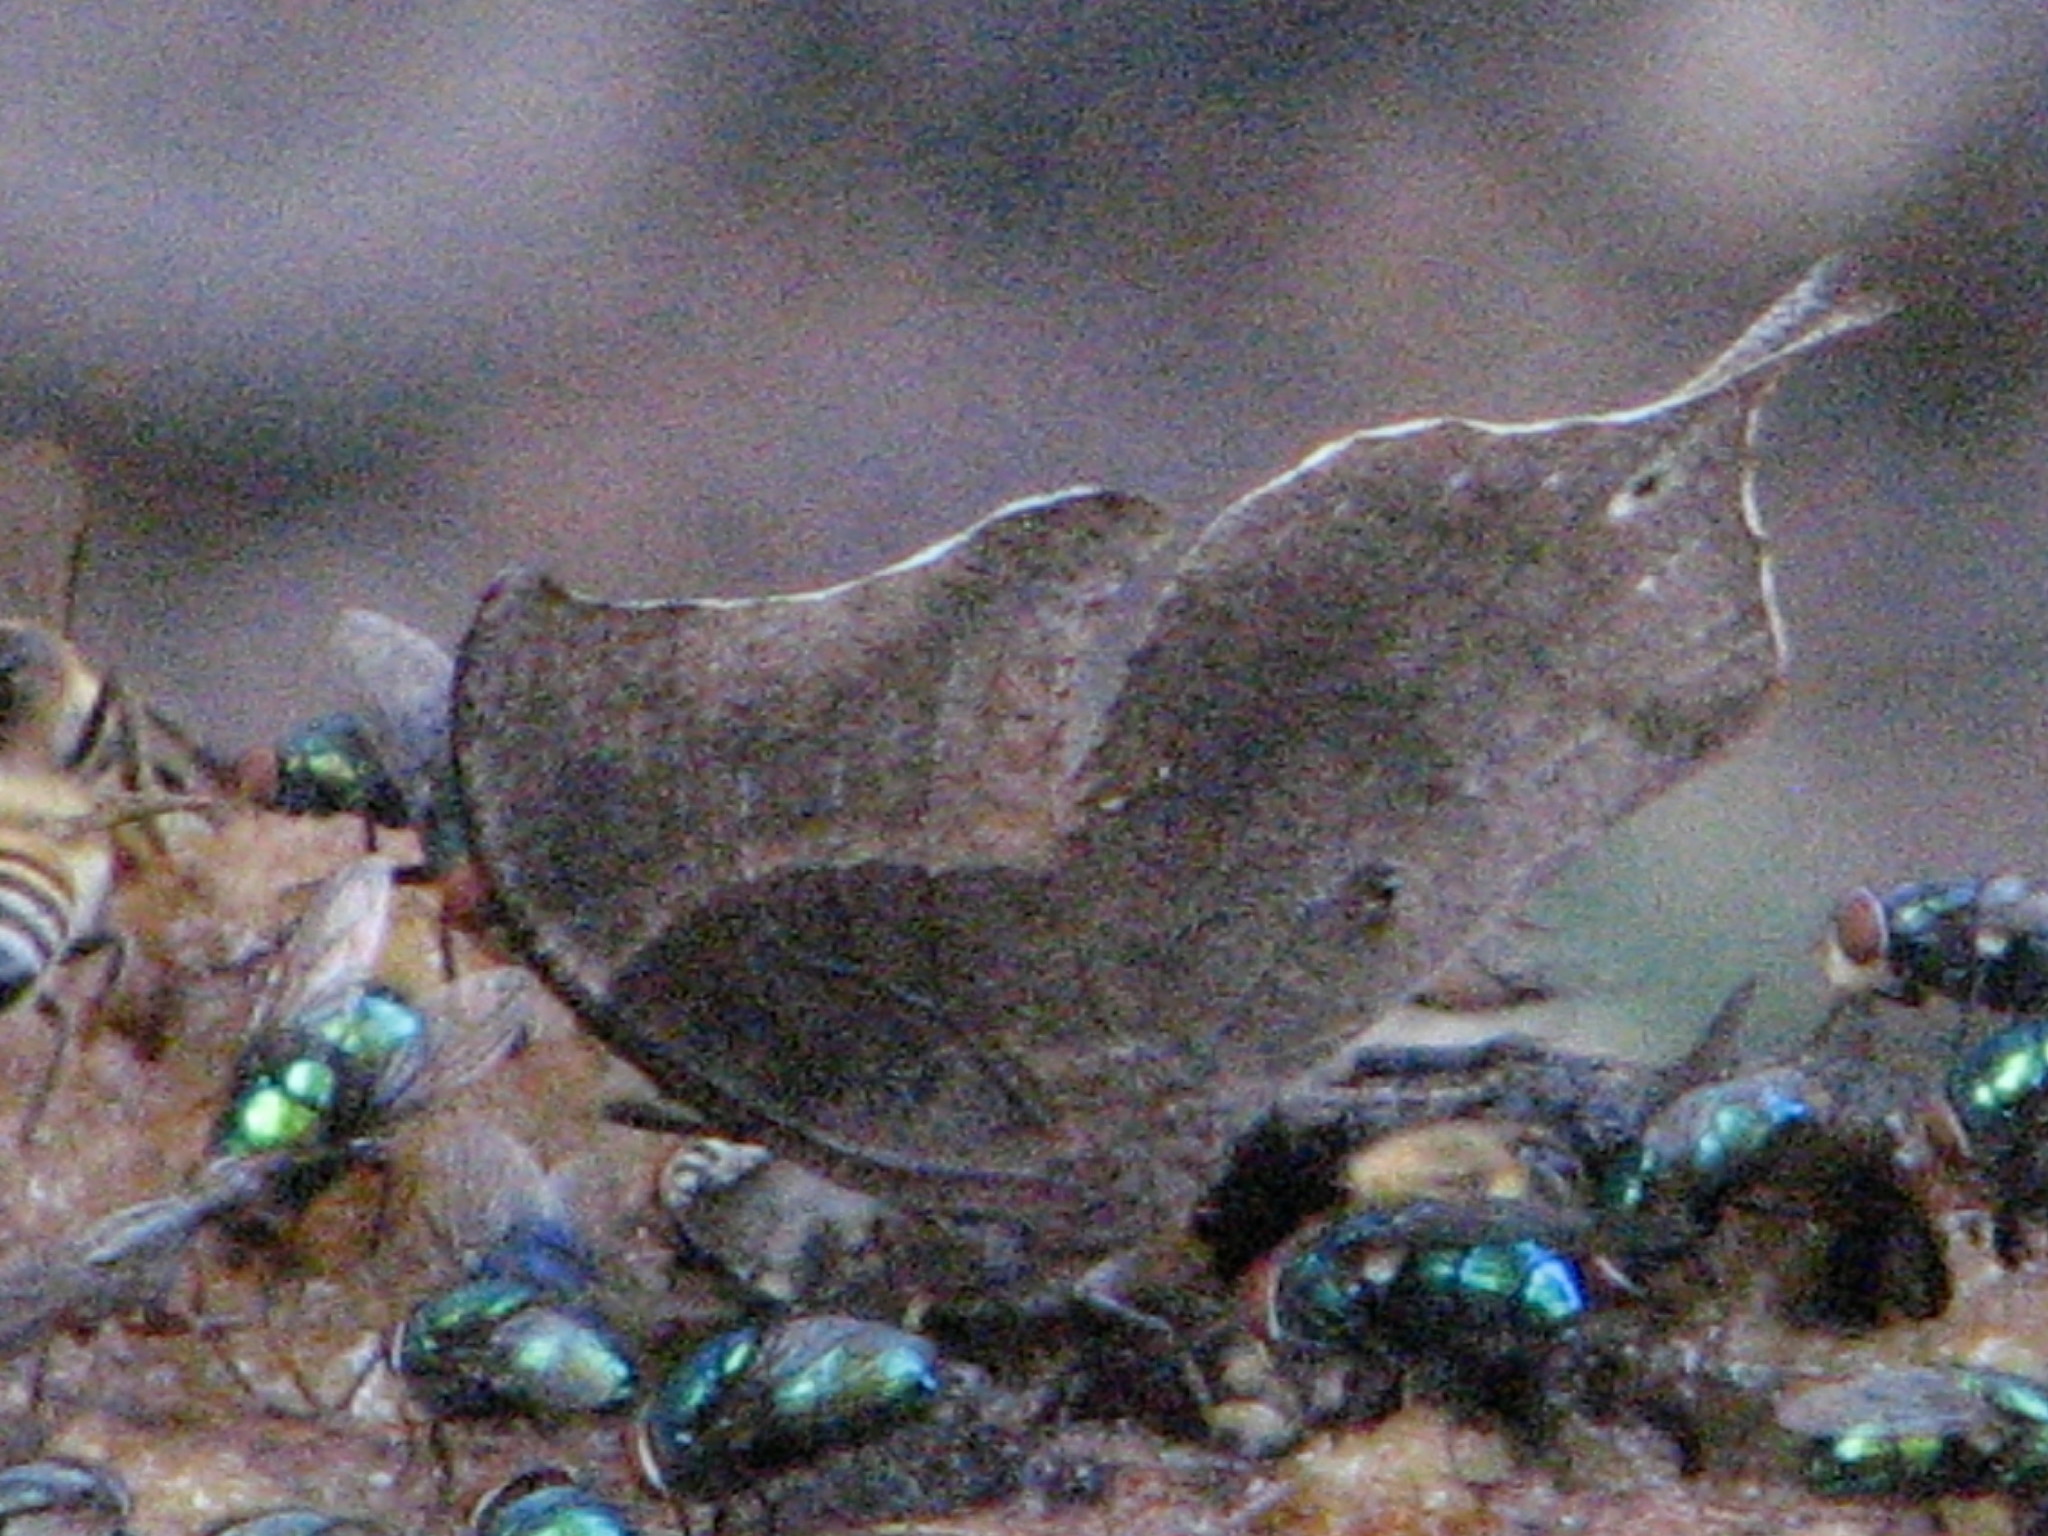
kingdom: Animalia
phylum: Arthropoda
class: Insecta
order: Lepidoptera
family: Nymphalidae
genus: Anaea
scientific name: Anaea pithyusa
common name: Pale-spotted leafwing
